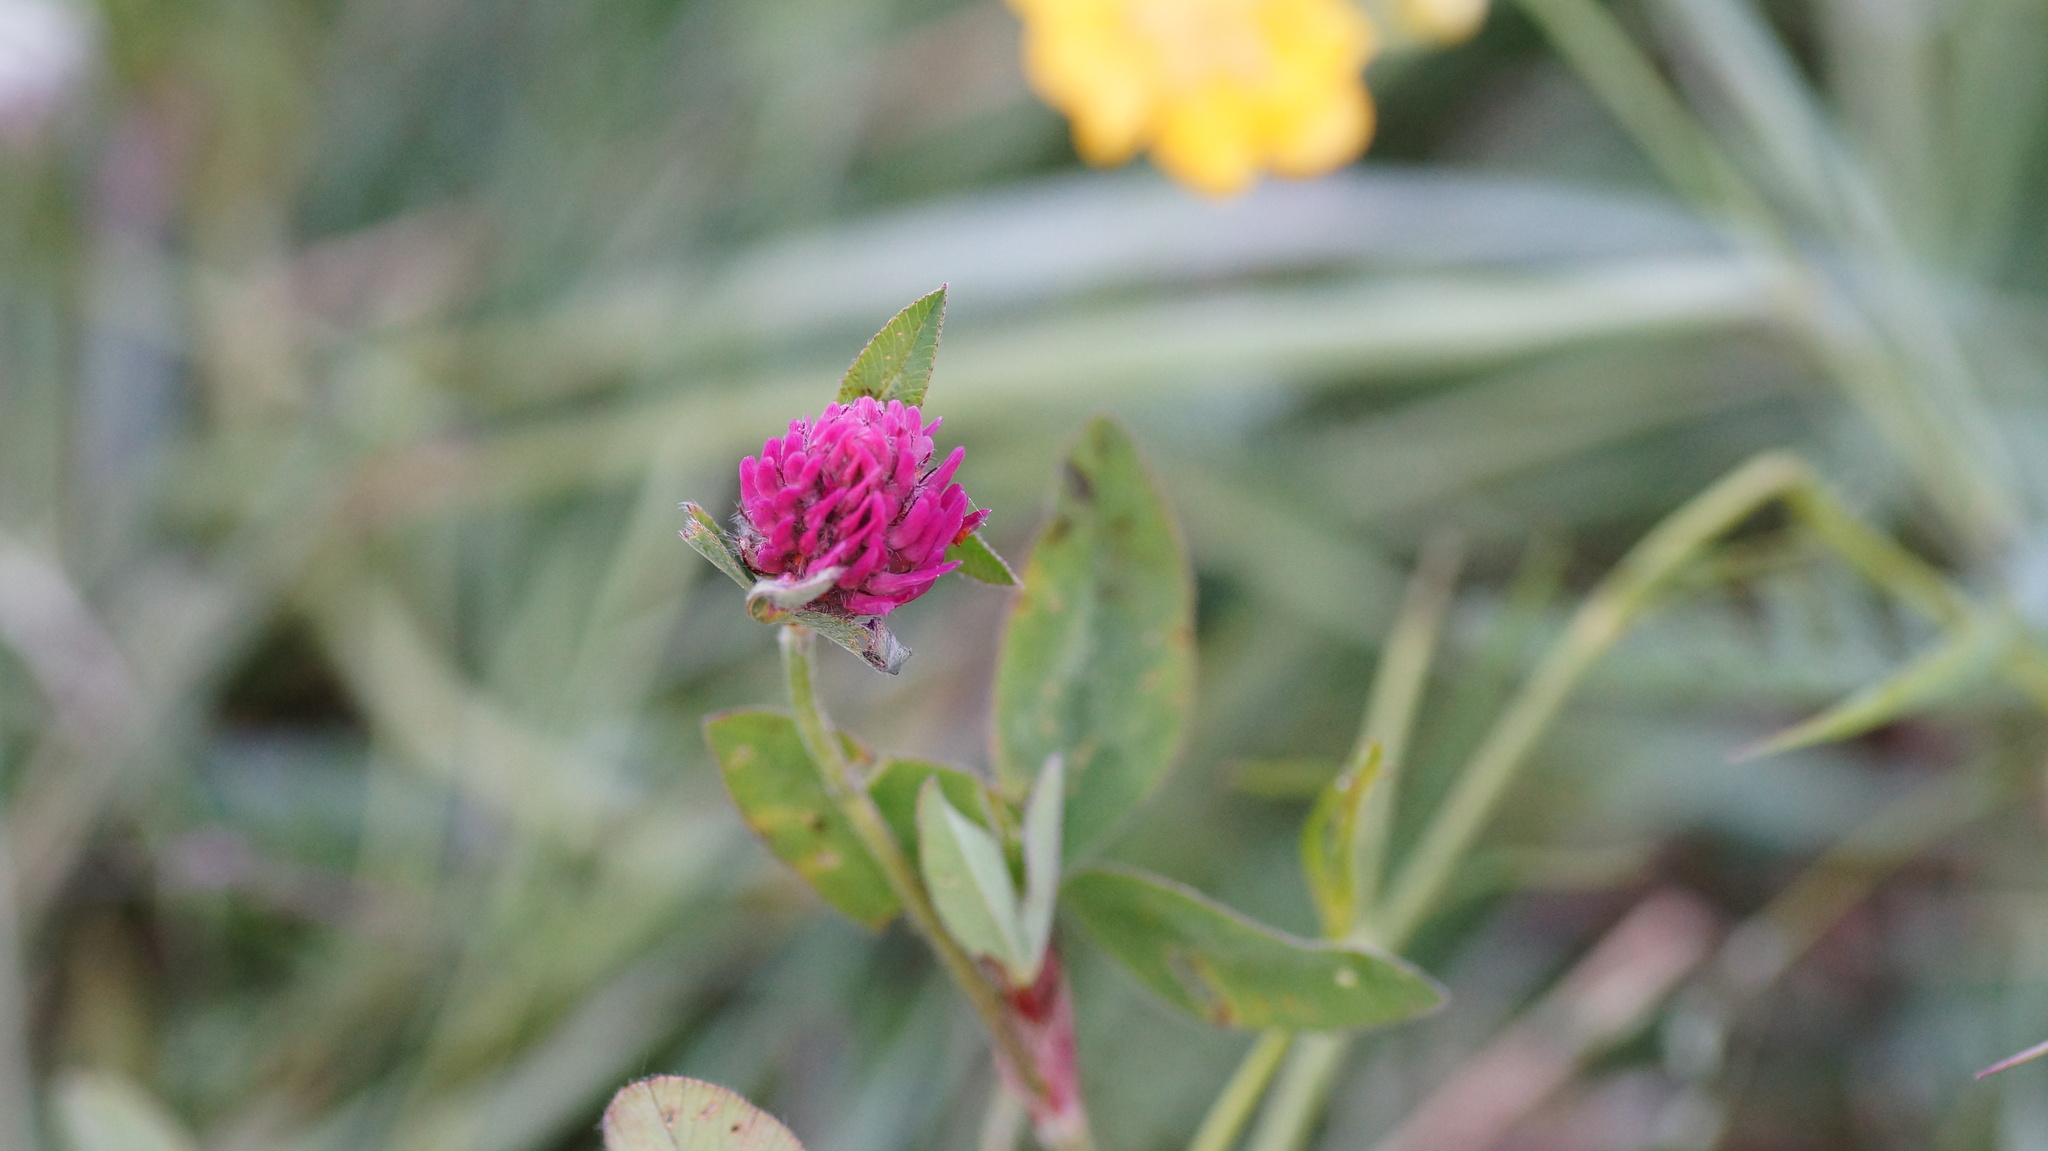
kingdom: Plantae
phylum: Tracheophyta
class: Magnoliopsida
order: Fabales
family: Fabaceae
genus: Trifolium
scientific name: Trifolium pratense
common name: Red clover
